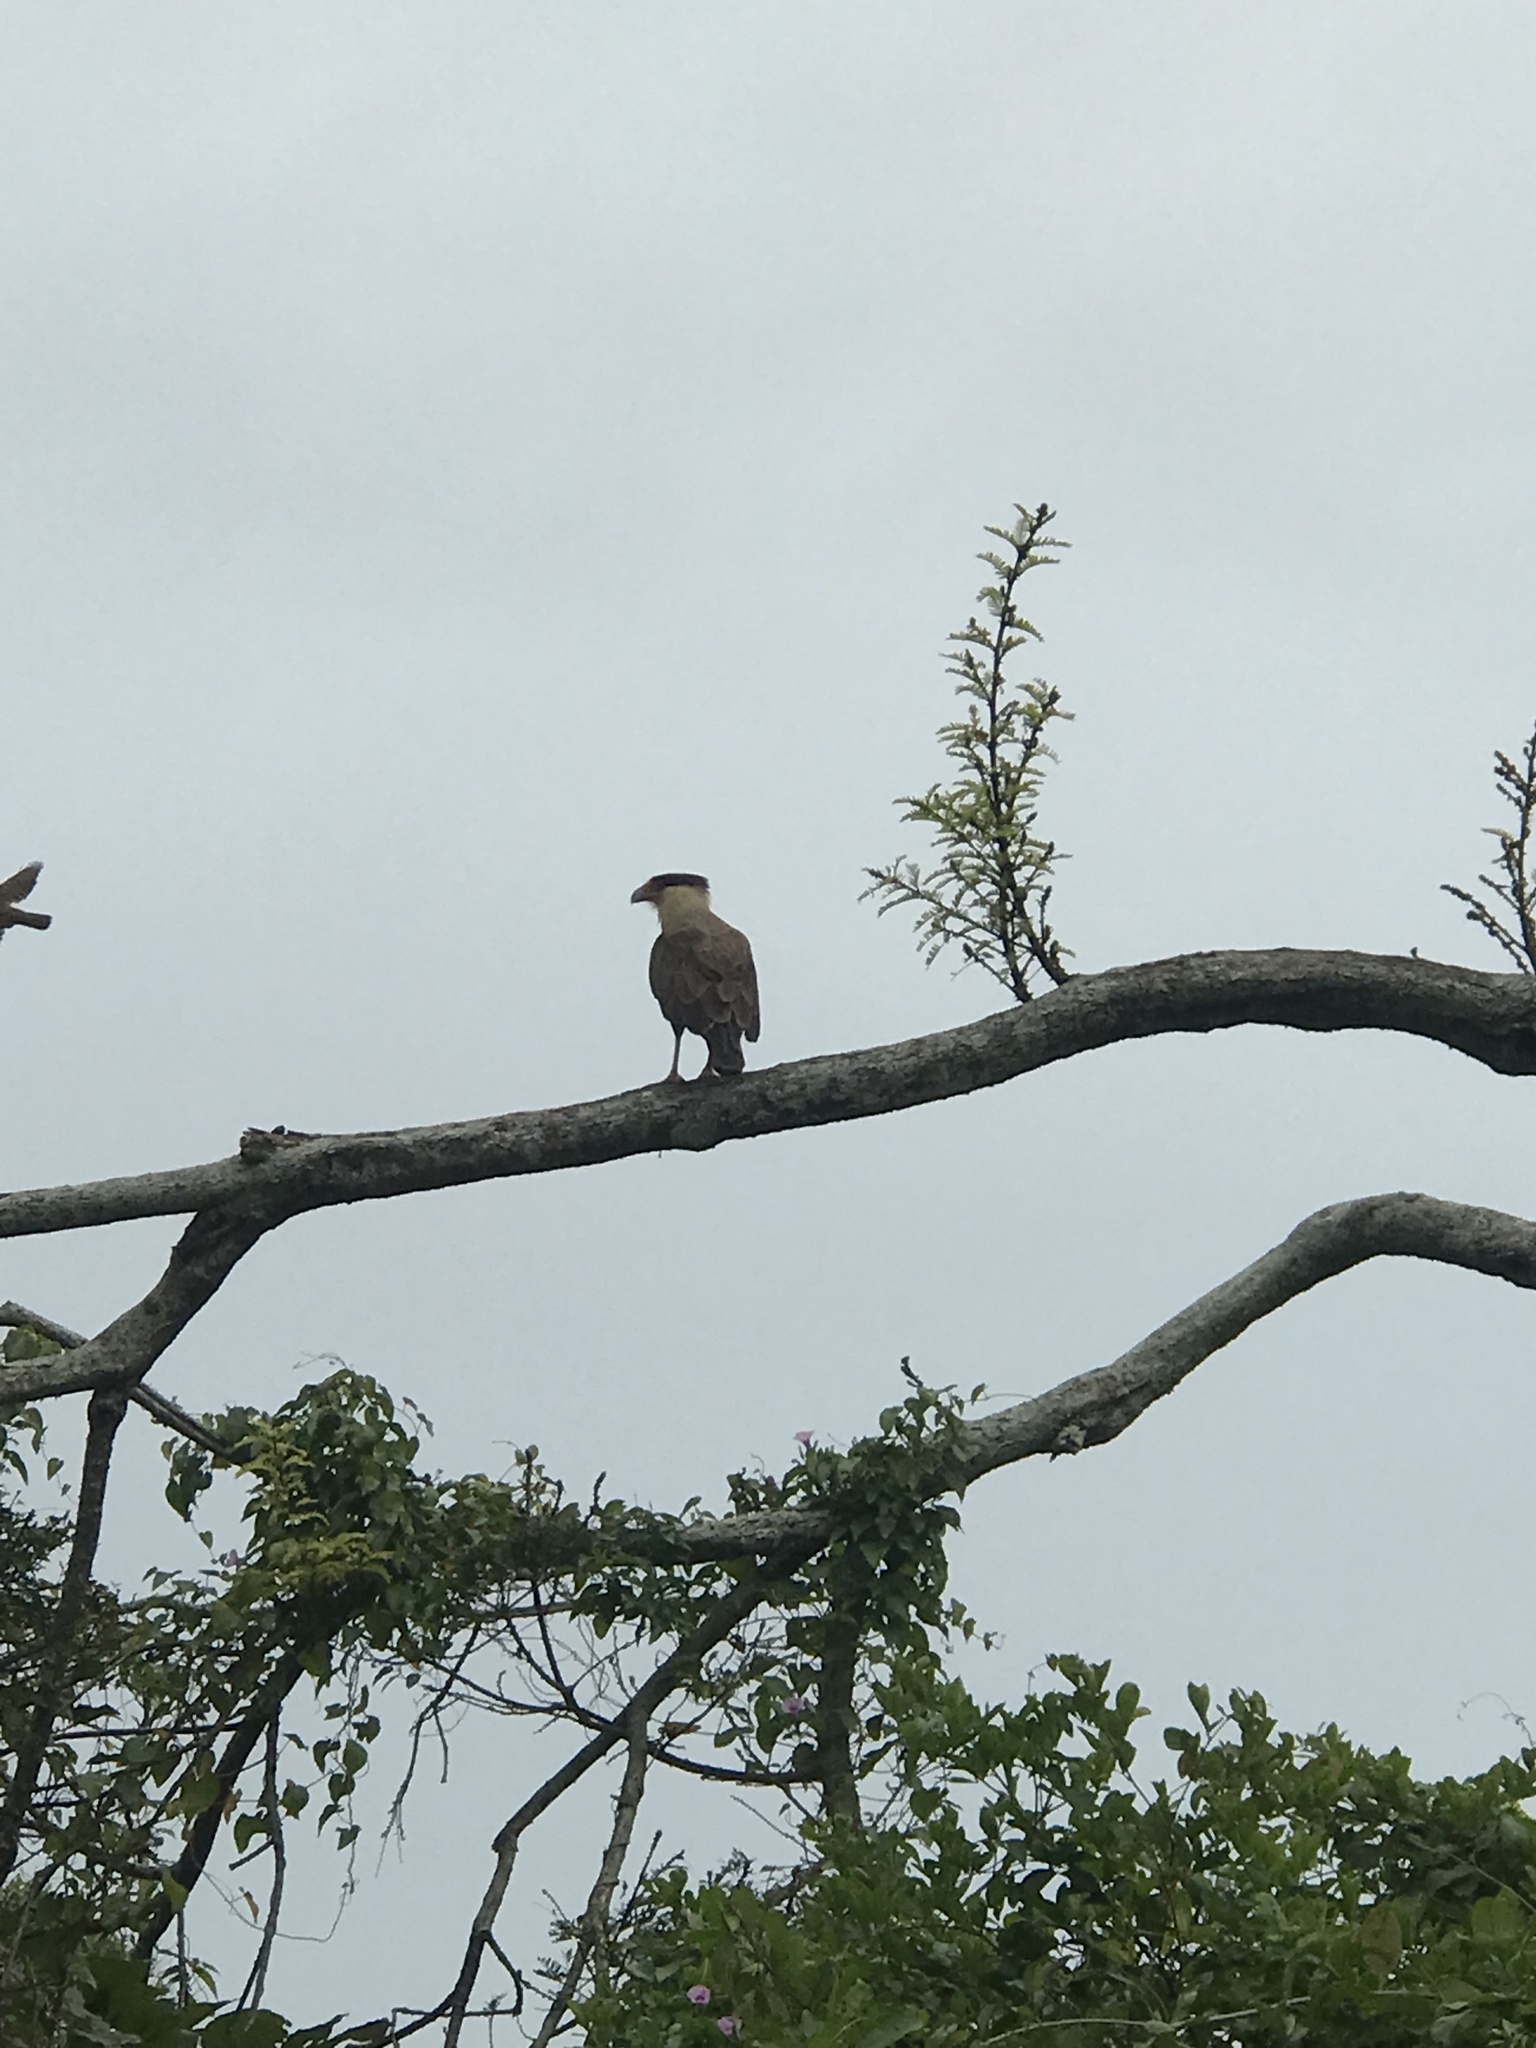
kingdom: Animalia
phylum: Chordata
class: Aves
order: Falconiformes
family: Falconidae
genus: Caracara
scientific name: Caracara plancus
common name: Southern caracara
